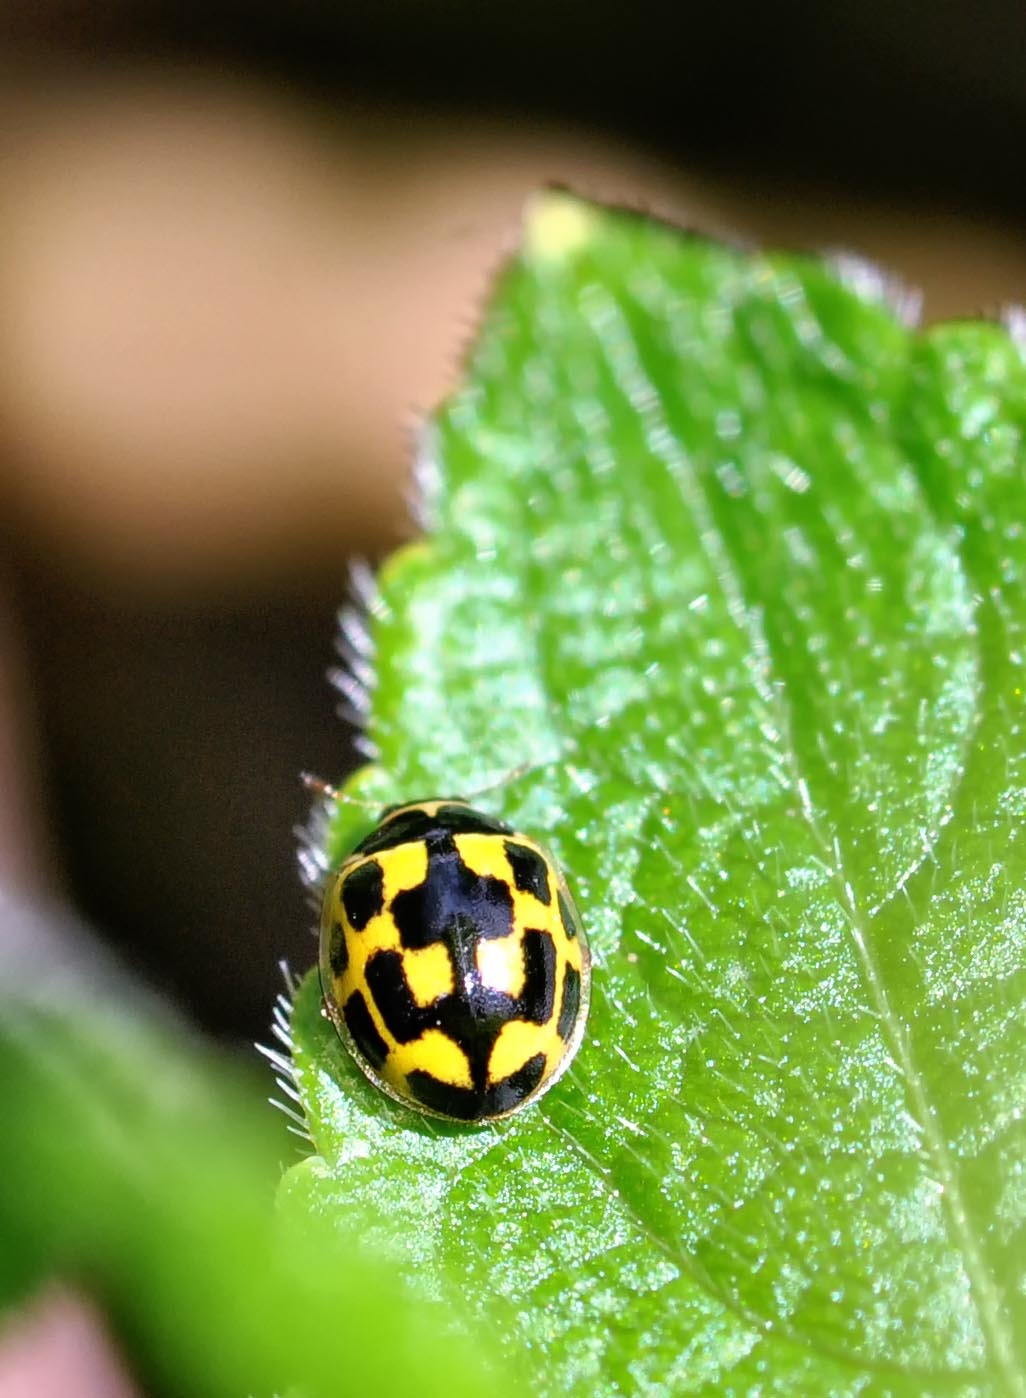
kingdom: Animalia
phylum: Arthropoda
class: Insecta
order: Coleoptera
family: Coccinellidae
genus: Propylaea
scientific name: Propylaea quatuordecimpunctata
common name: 14-spotted ladybird beetle
